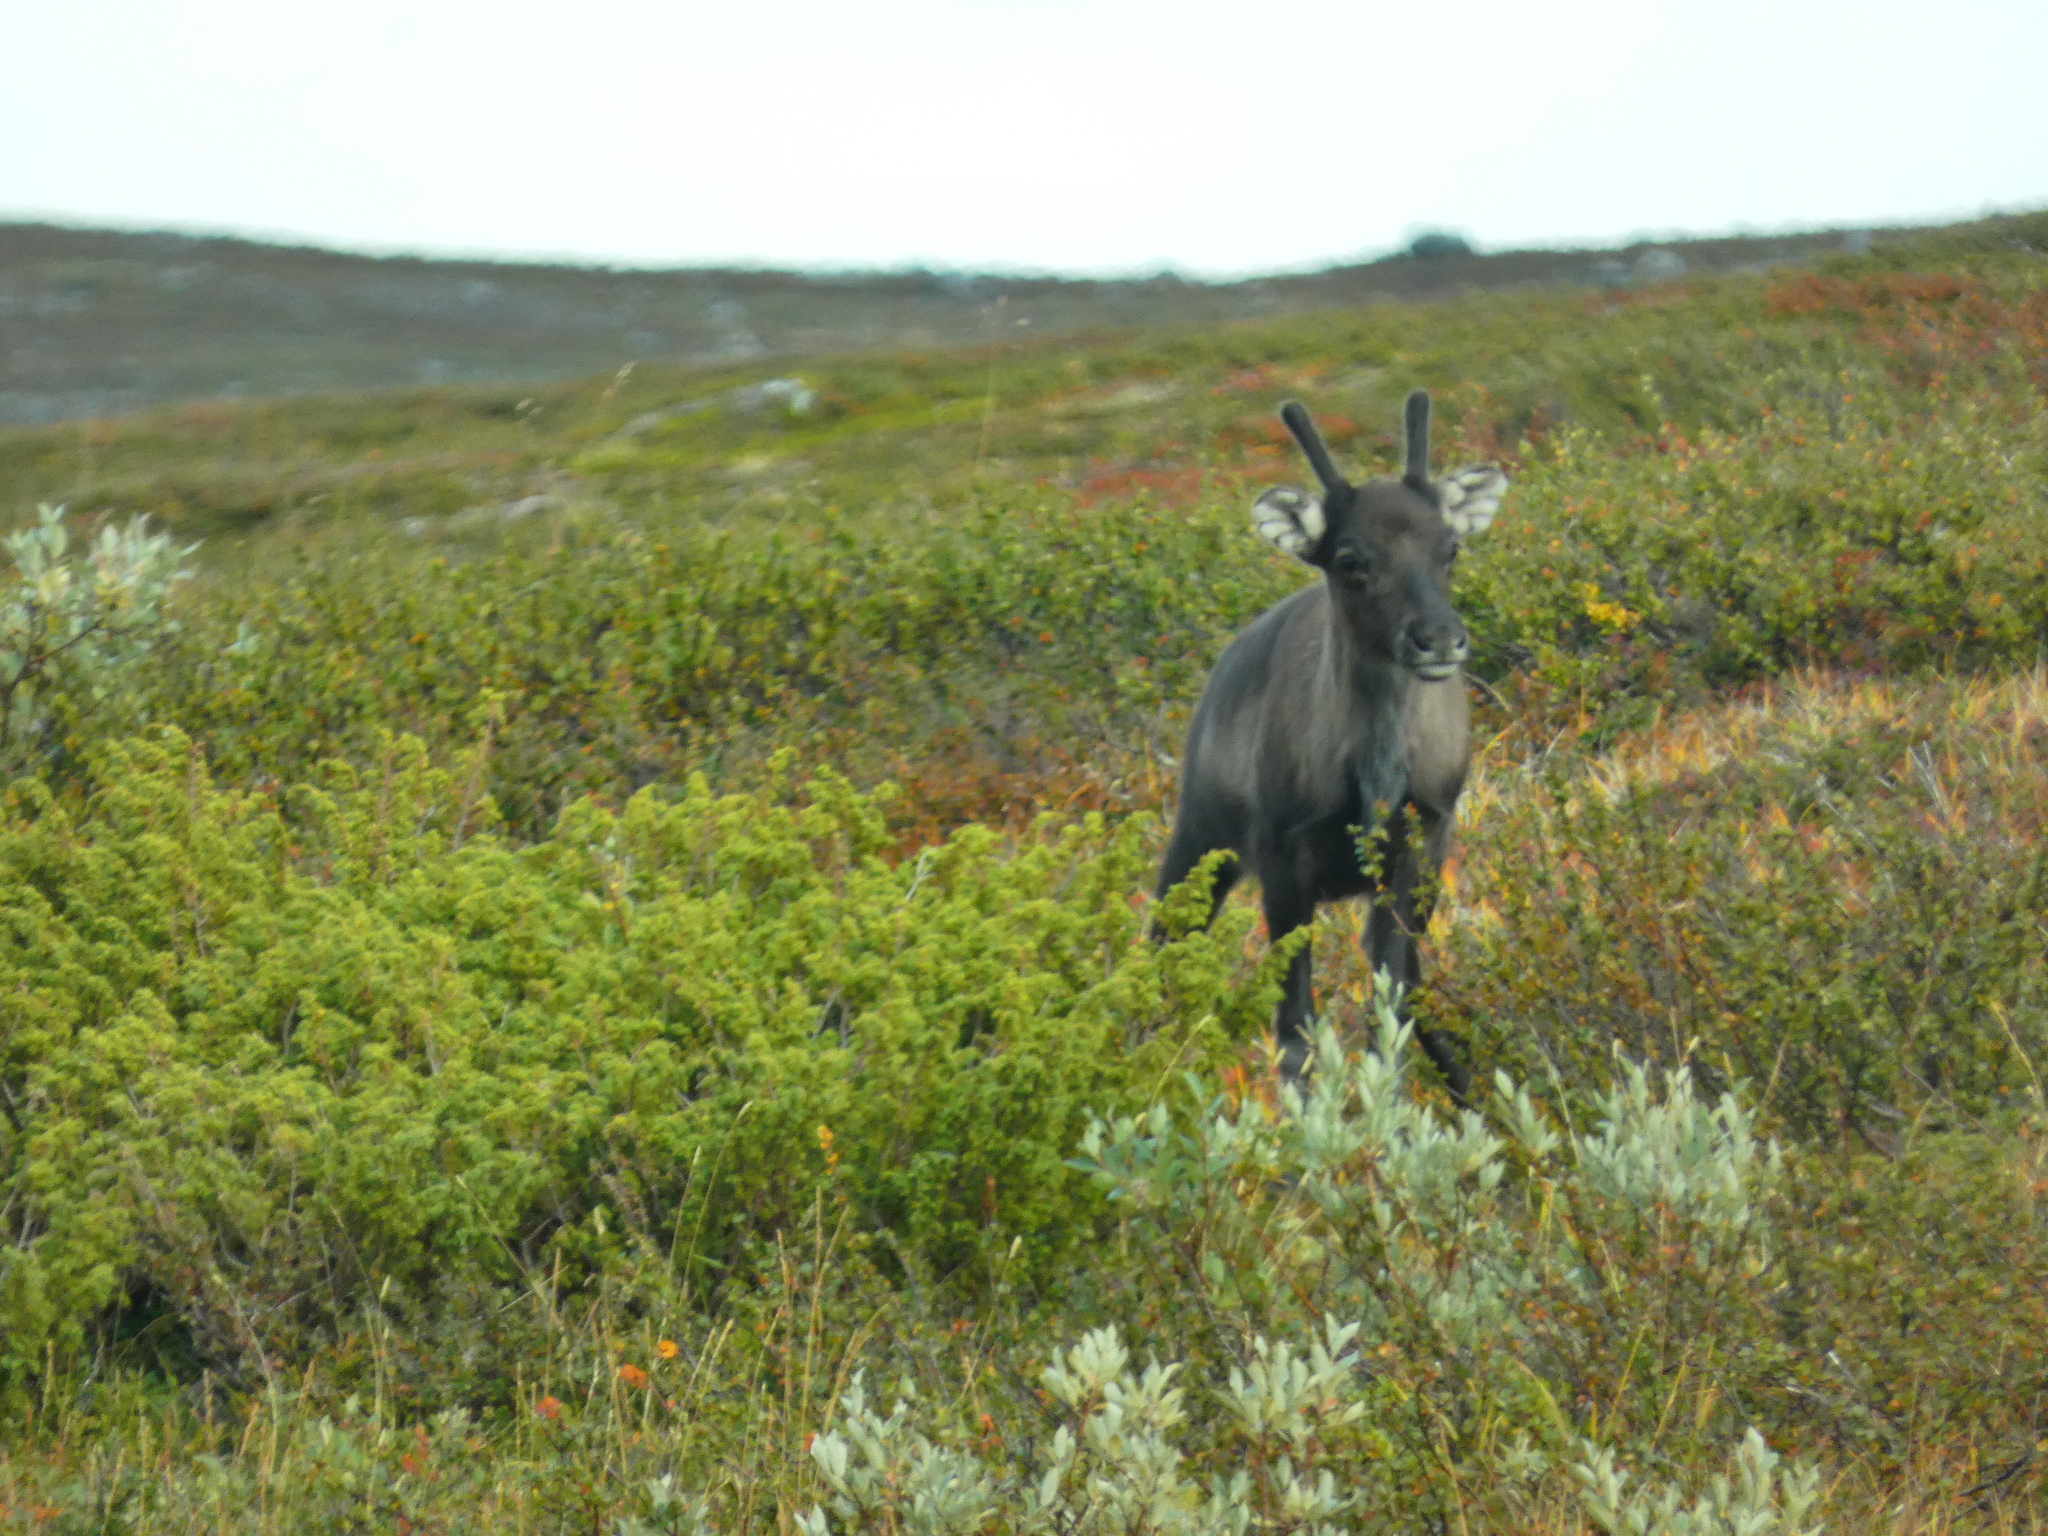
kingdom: Animalia
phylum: Chordata
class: Mammalia
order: Artiodactyla
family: Cervidae
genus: Rangifer
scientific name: Rangifer tarandus
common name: Reindeer
